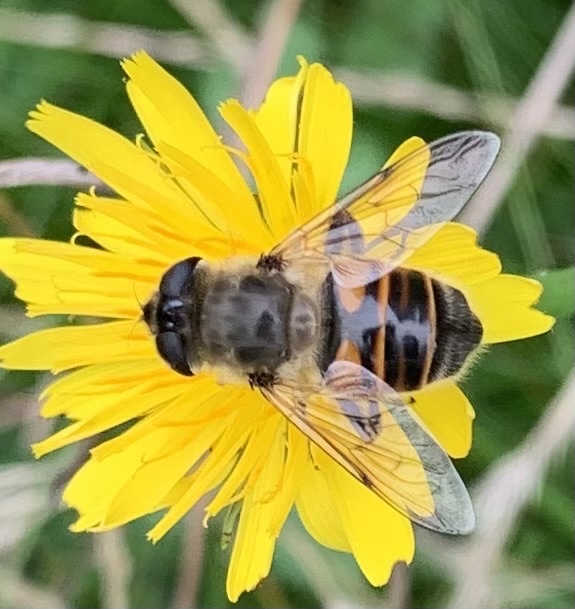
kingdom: Animalia
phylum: Arthropoda
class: Insecta
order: Diptera
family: Syrphidae
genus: Eristalis
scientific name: Eristalis tenax
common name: Drone fly
